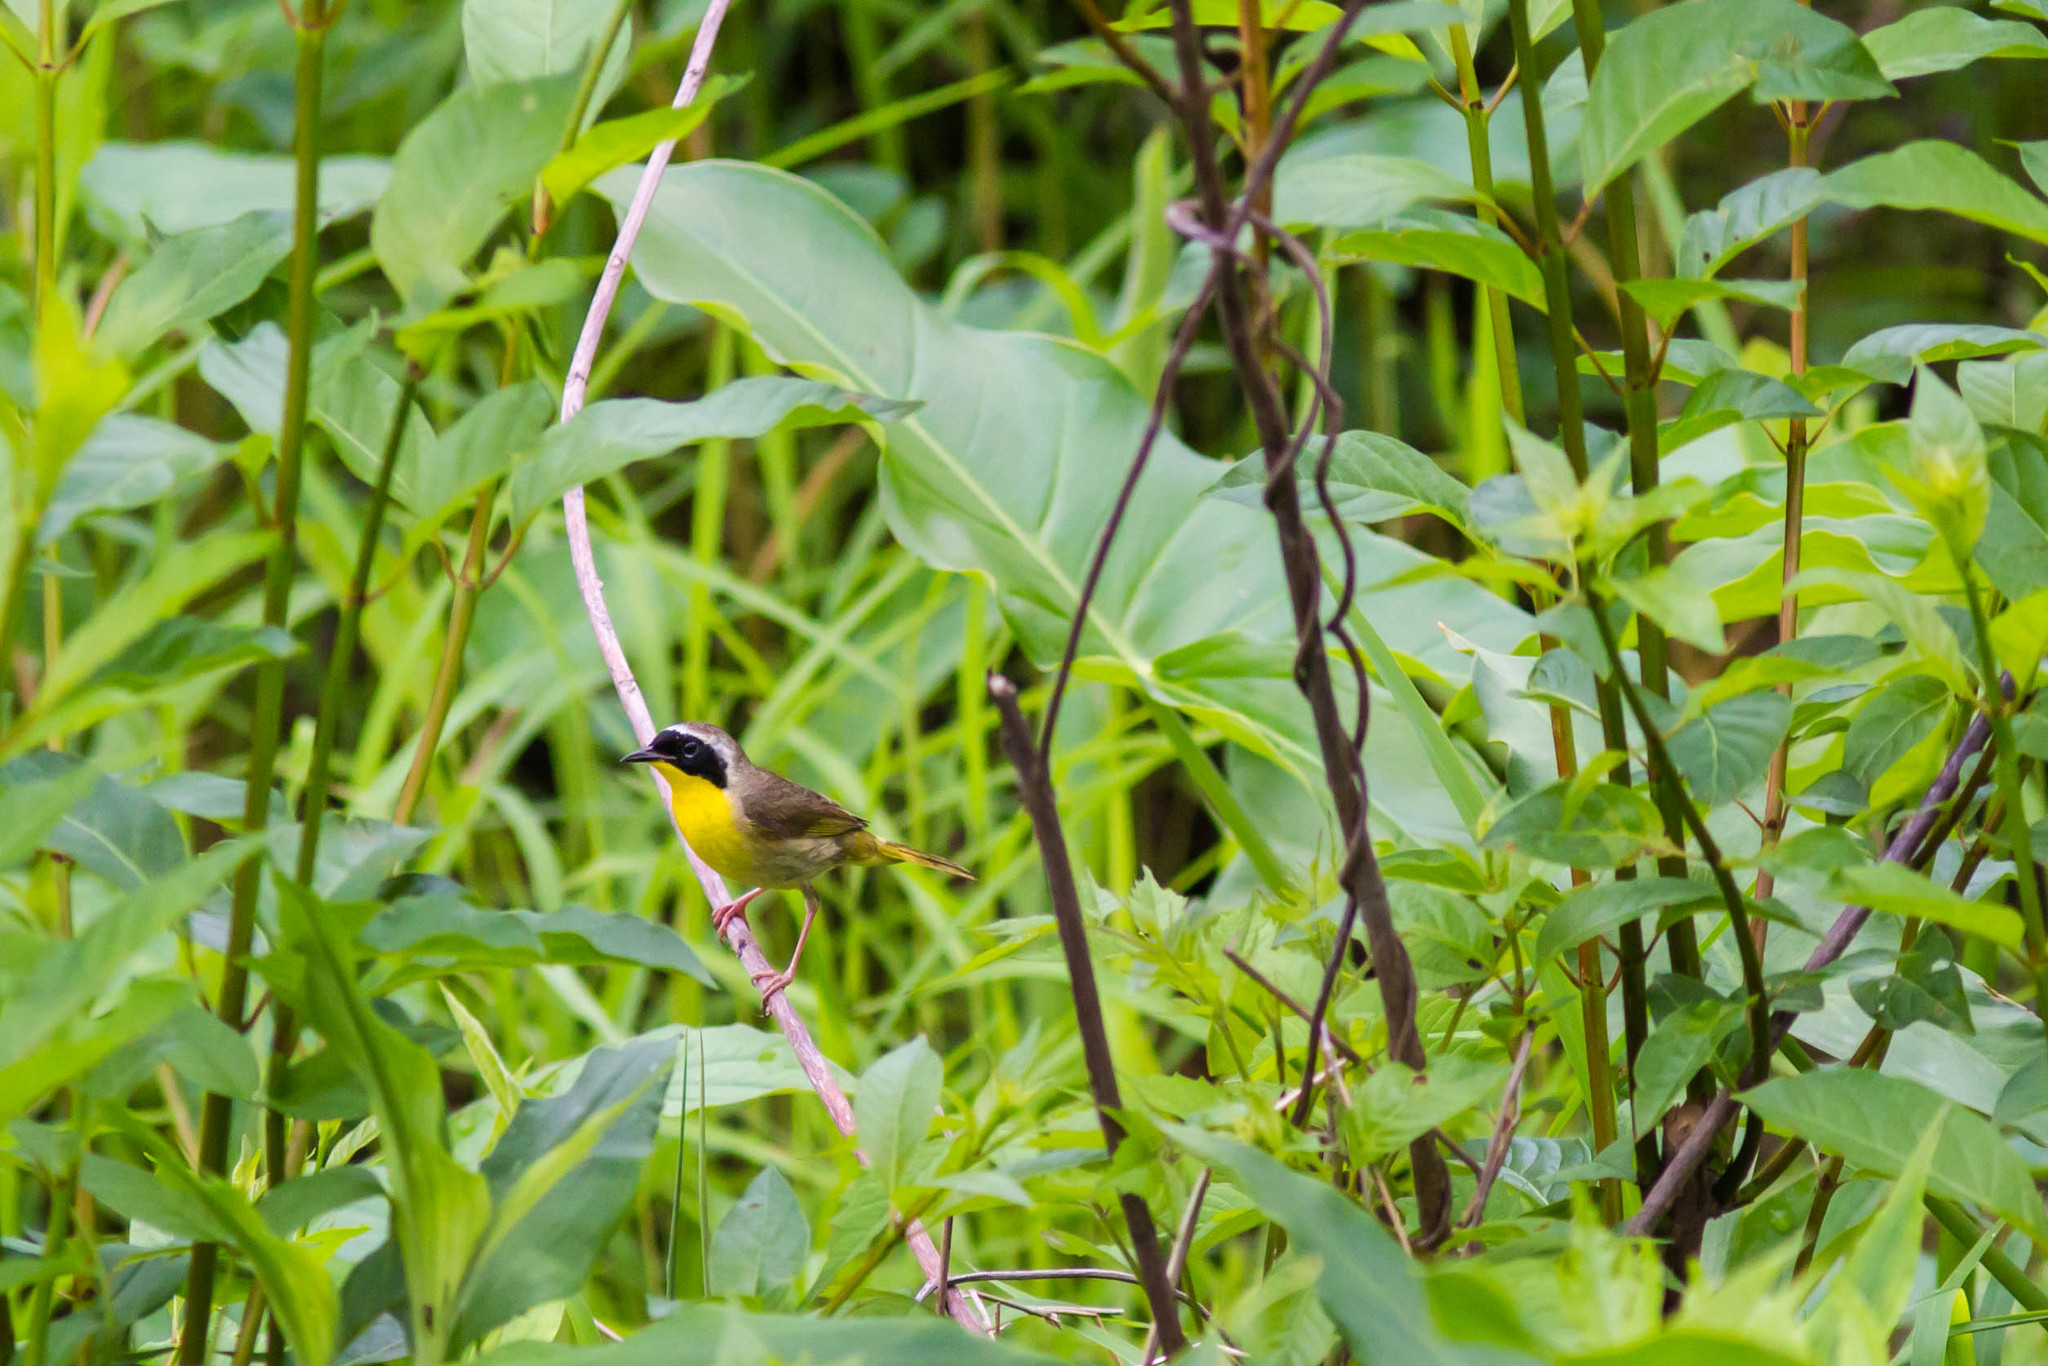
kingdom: Animalia
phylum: Chordata
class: Aves
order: Passeriformes
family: Parulidae
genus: Geothlypis
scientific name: Geothlypis trichas
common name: Common yellowthroat
